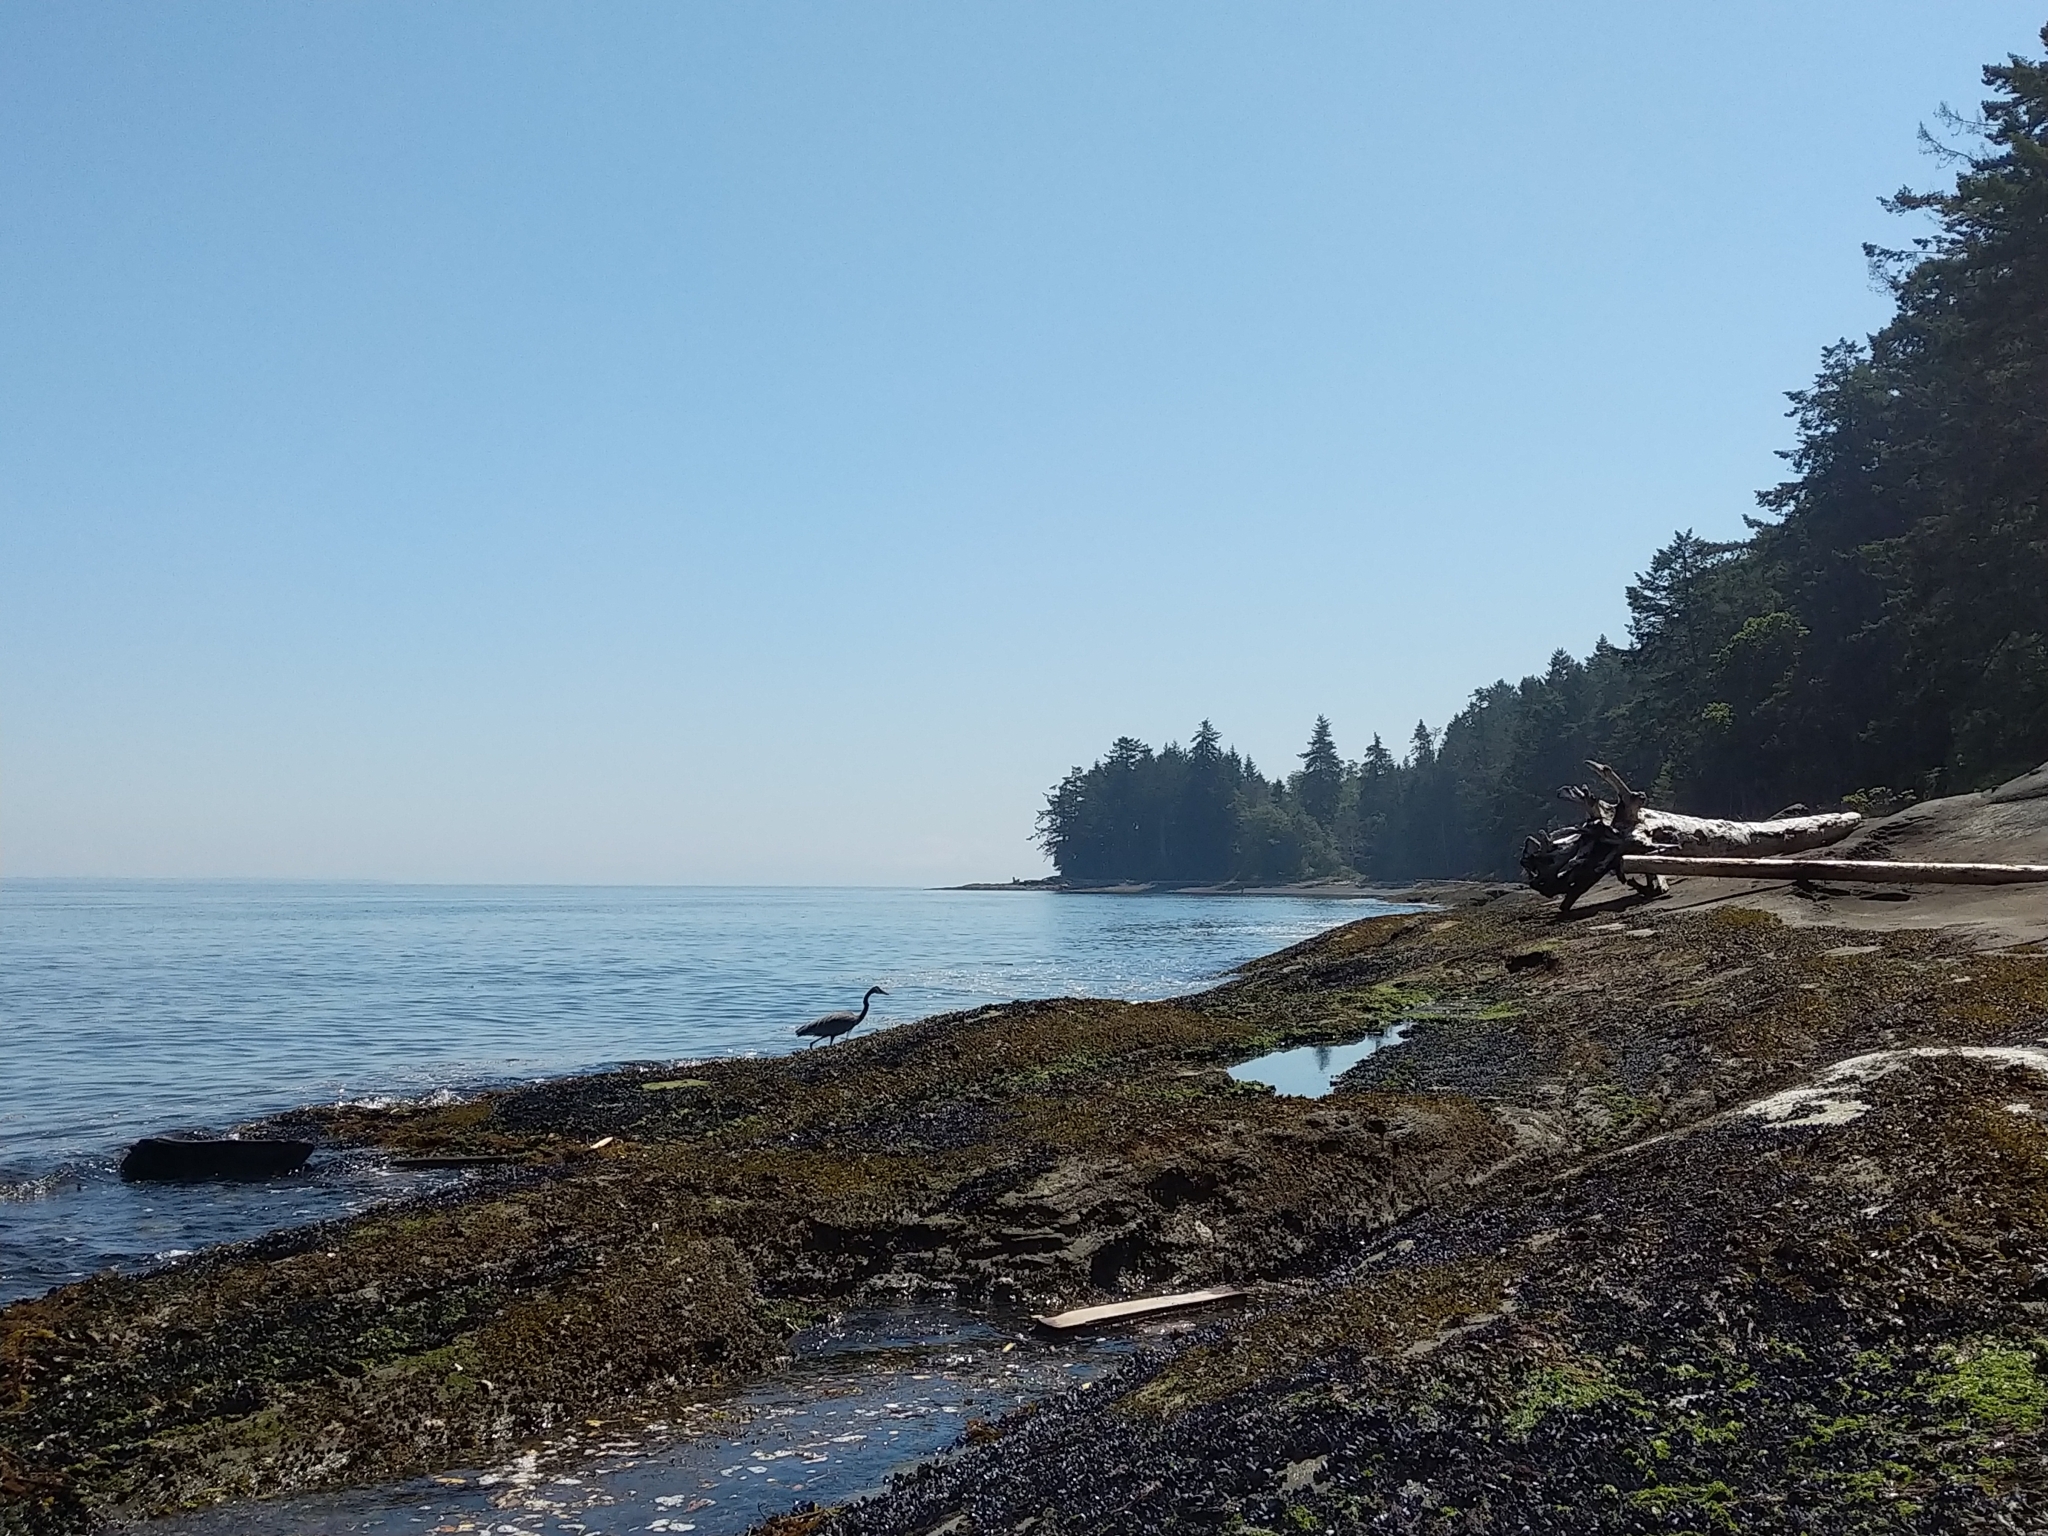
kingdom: Animalia
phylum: Chordata
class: Aves
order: Pelecaniformes
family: Ardeidae
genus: Ardea
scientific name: Ardea herodias
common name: Great blue heron
